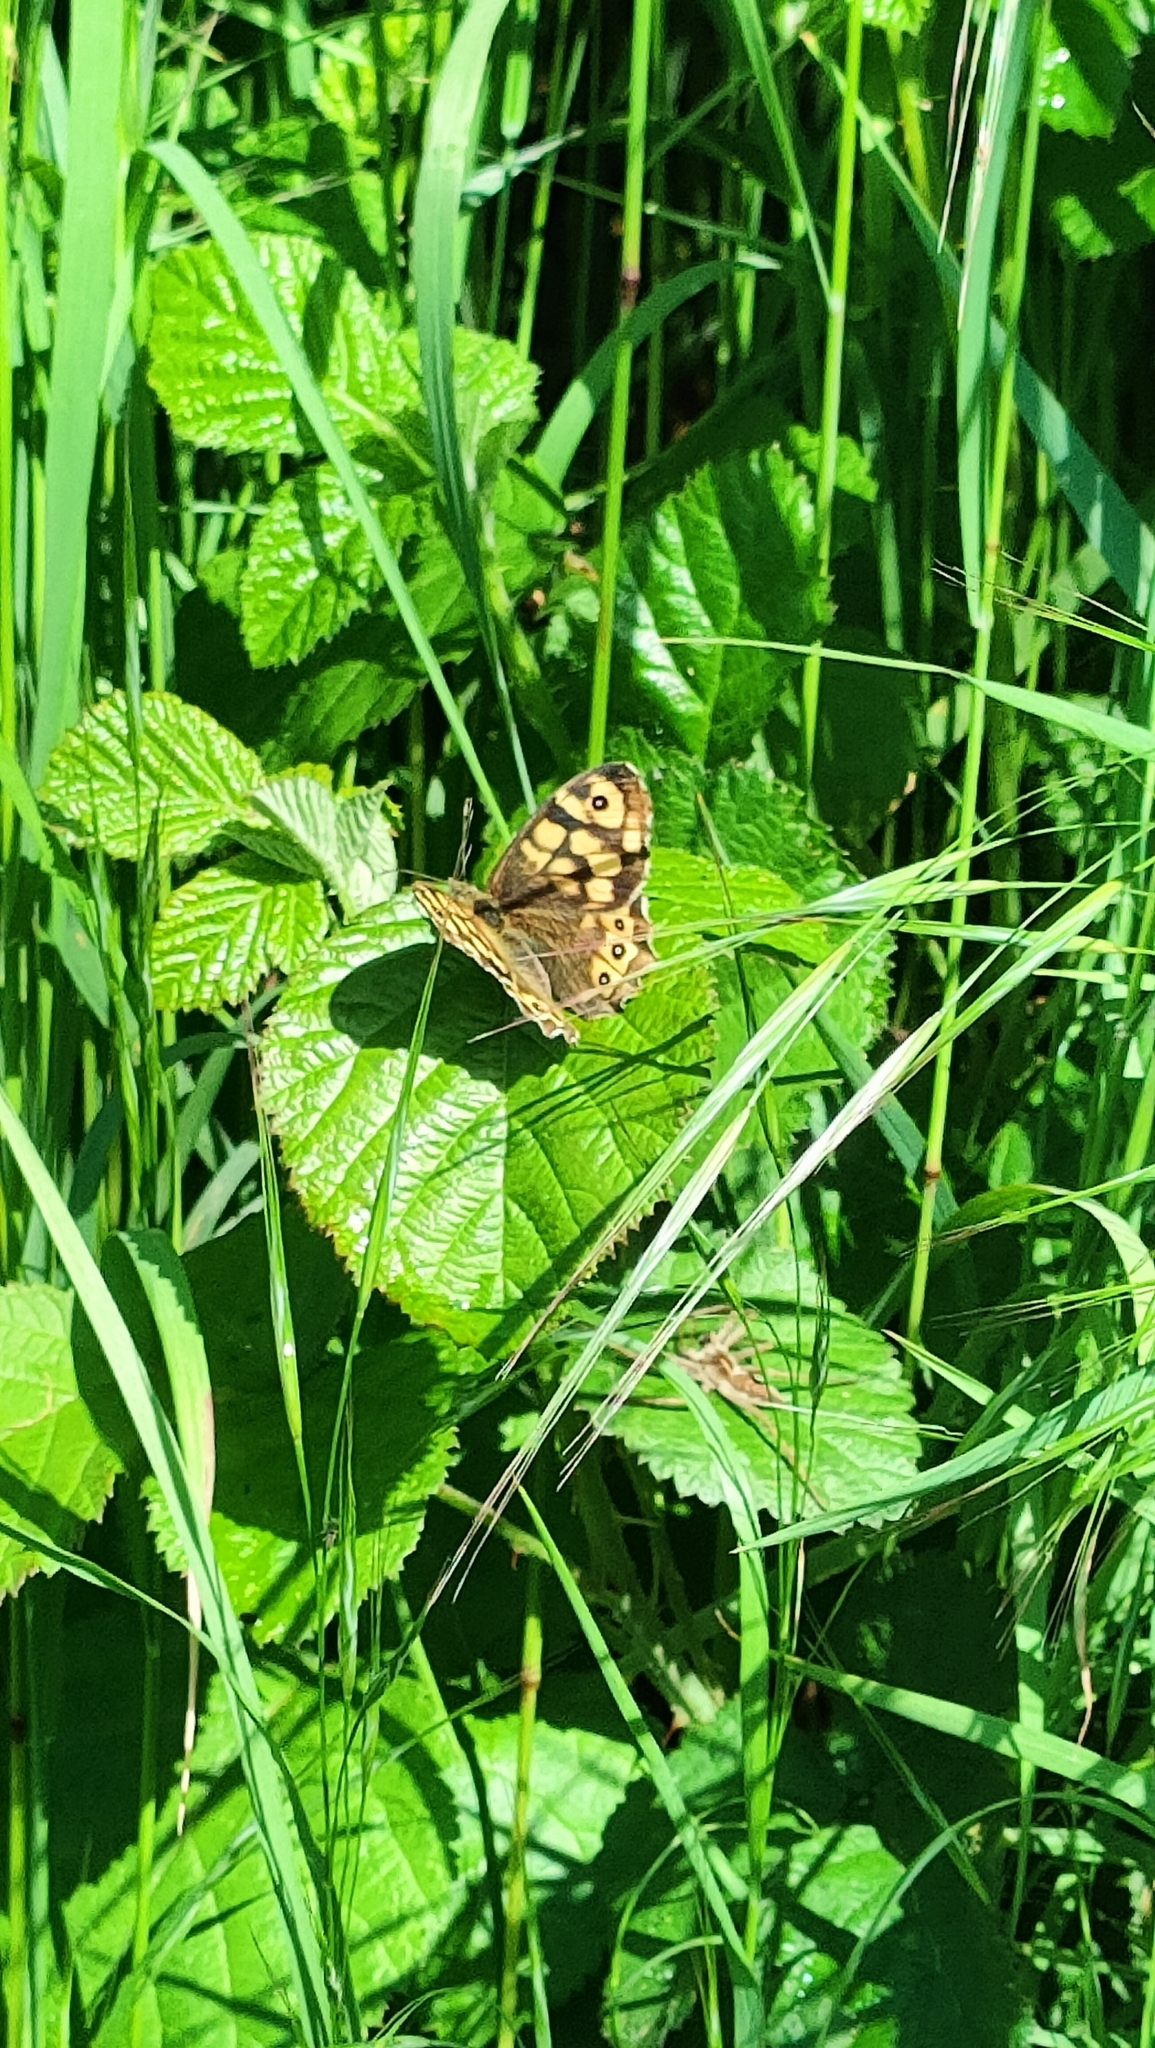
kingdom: Animalia
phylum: Arthropoda
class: Insecta
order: Lepidoptera
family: Nymphalidae
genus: Pararge
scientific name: Pararge aegeria
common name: Speckled wood
